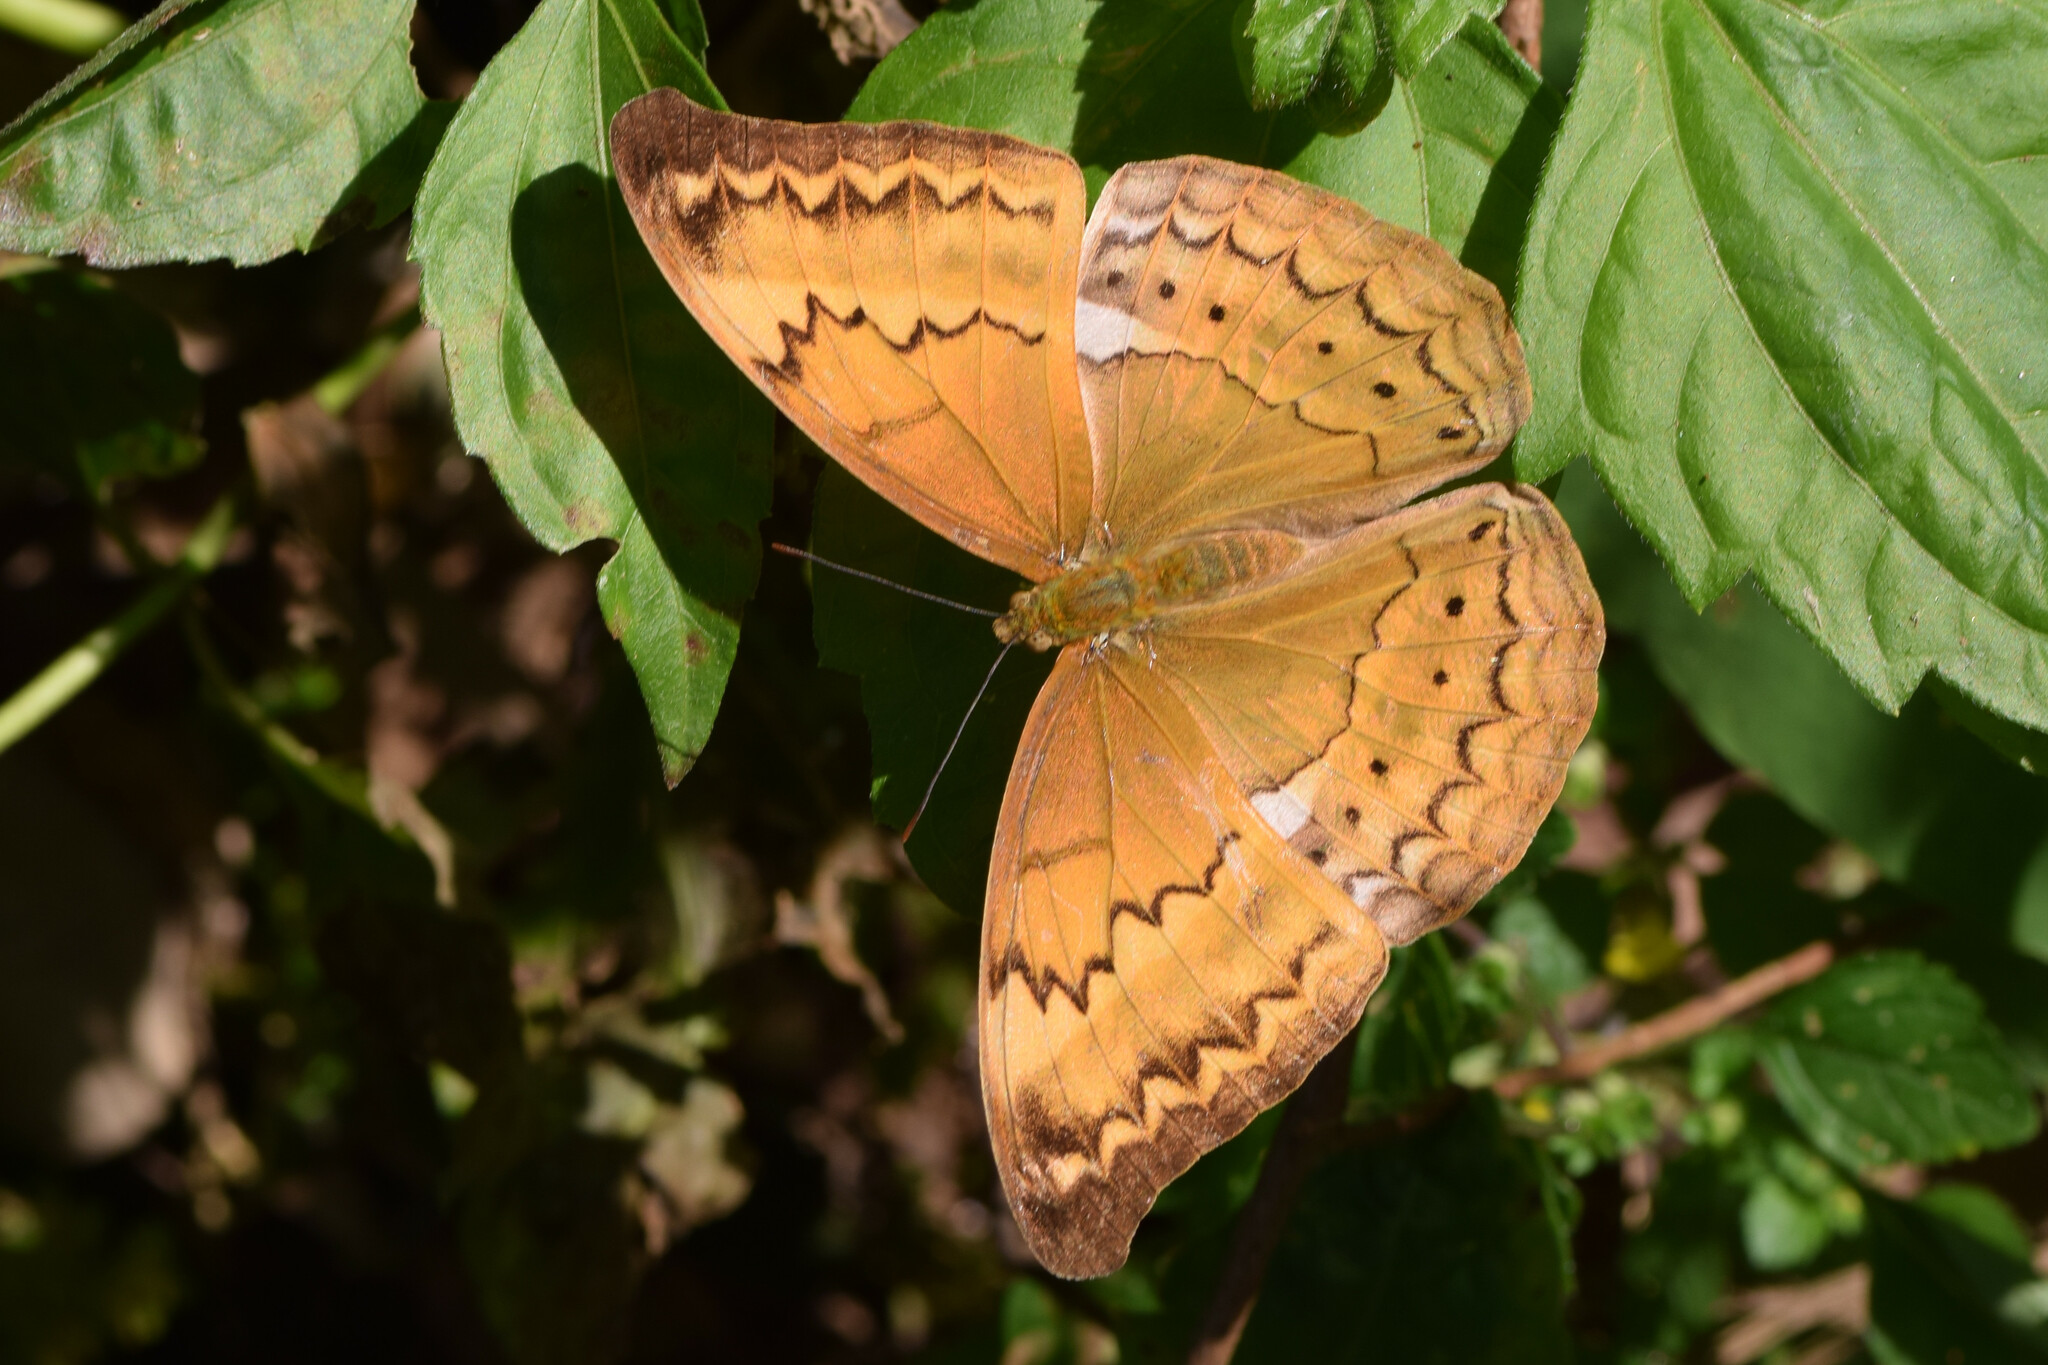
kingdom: Animalia
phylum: Arthropoda
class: Insecta
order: Lepidoptera
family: Nymphalidae
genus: Cirrochroa
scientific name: Cirrochroa aoris
